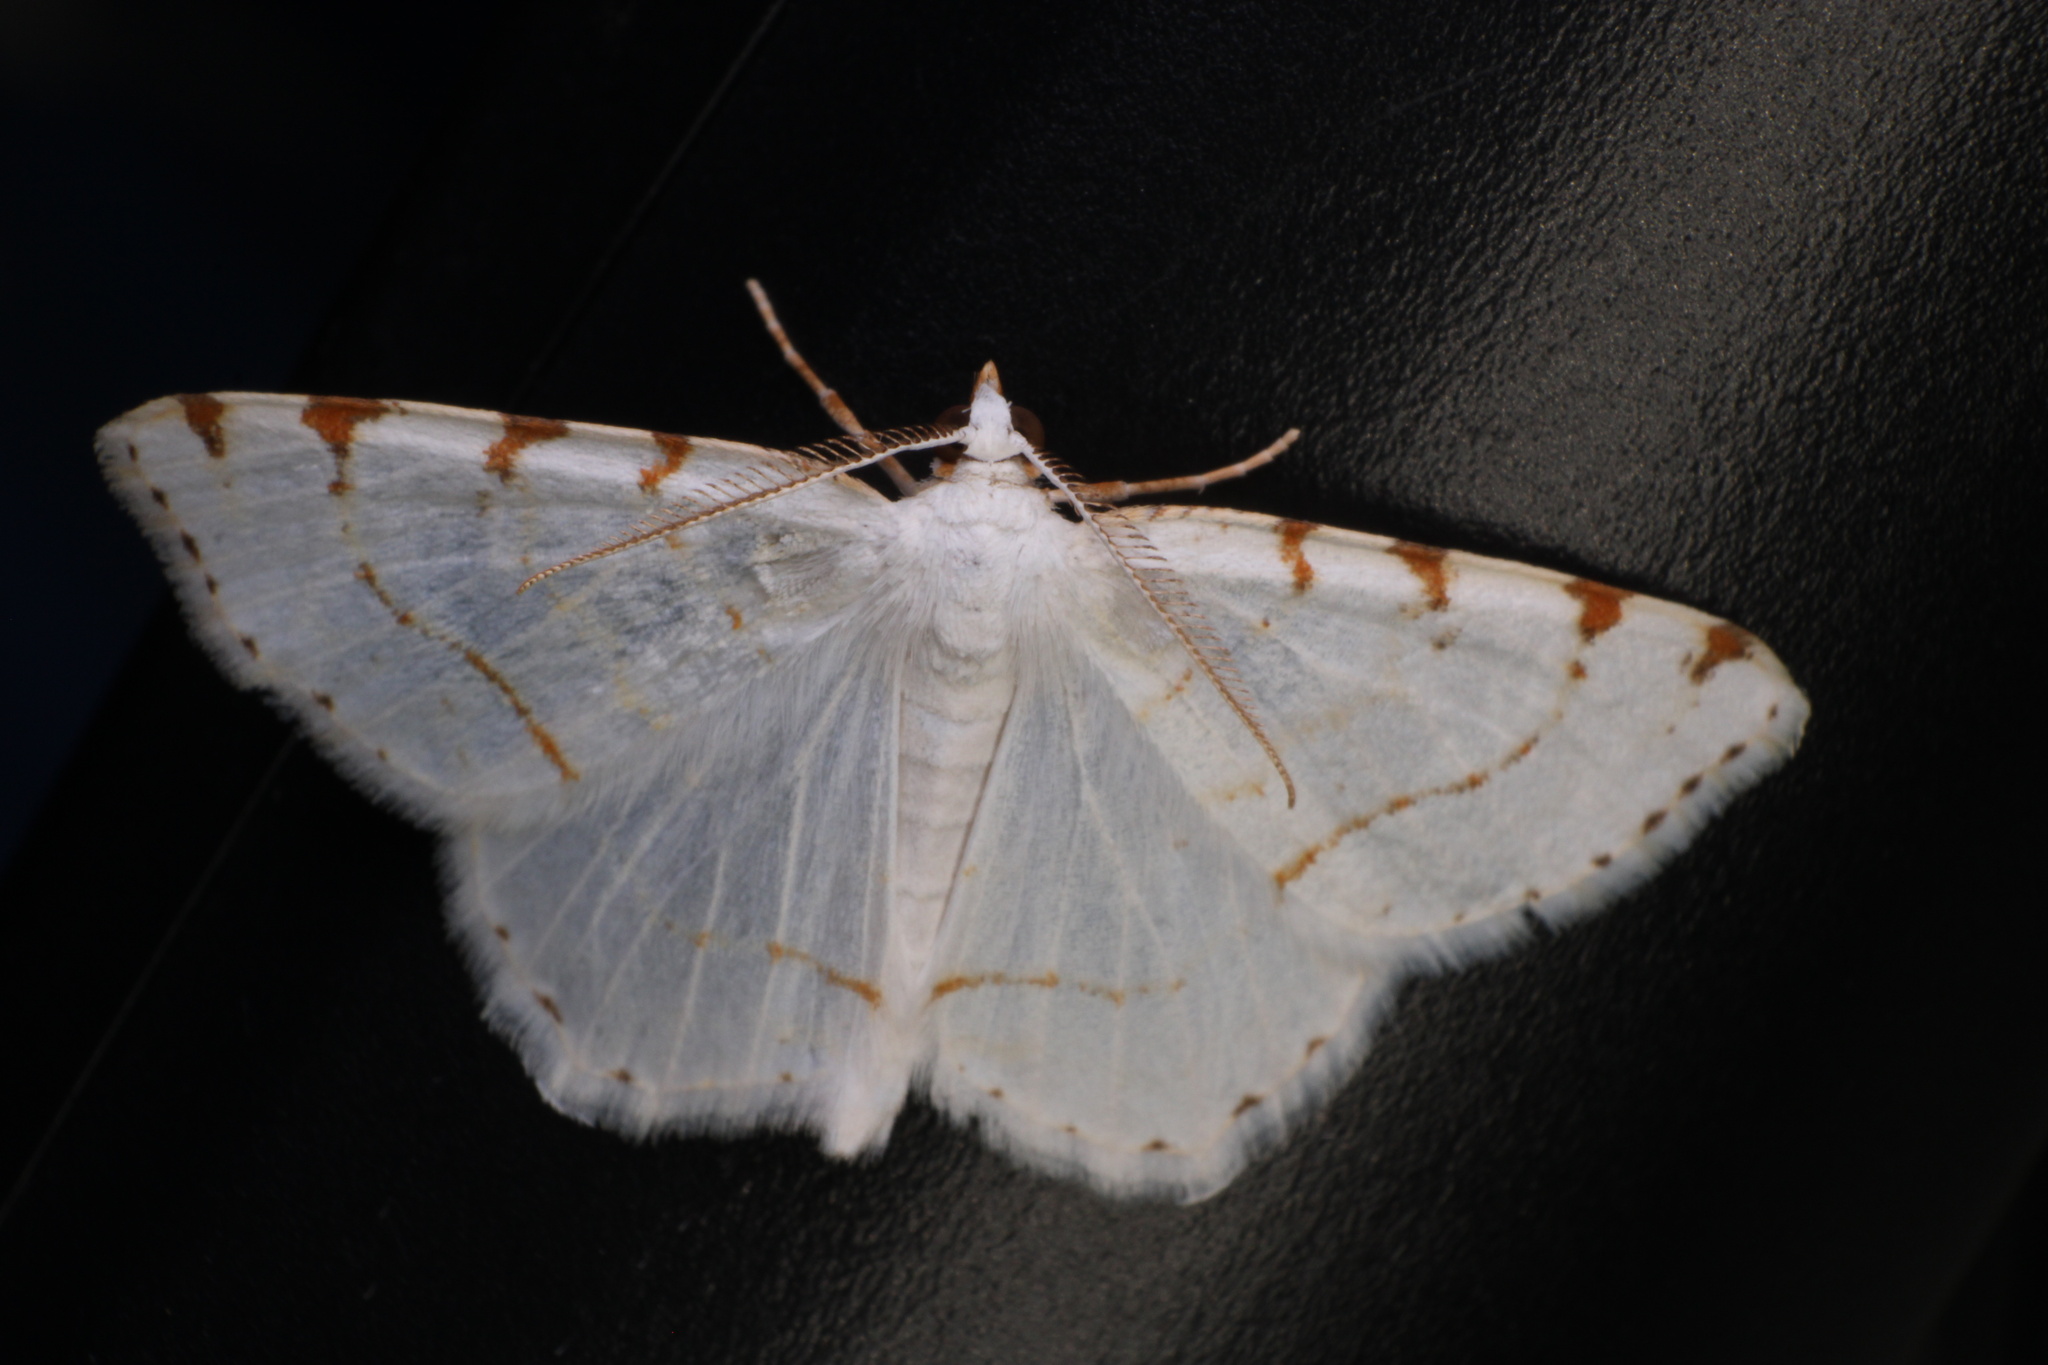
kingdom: Animalia
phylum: Arthropoda
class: Insecta
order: Lepidoptera
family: Geometridae
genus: Macaria
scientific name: Macaria pustularia
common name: Lesser maple spanworm moth
